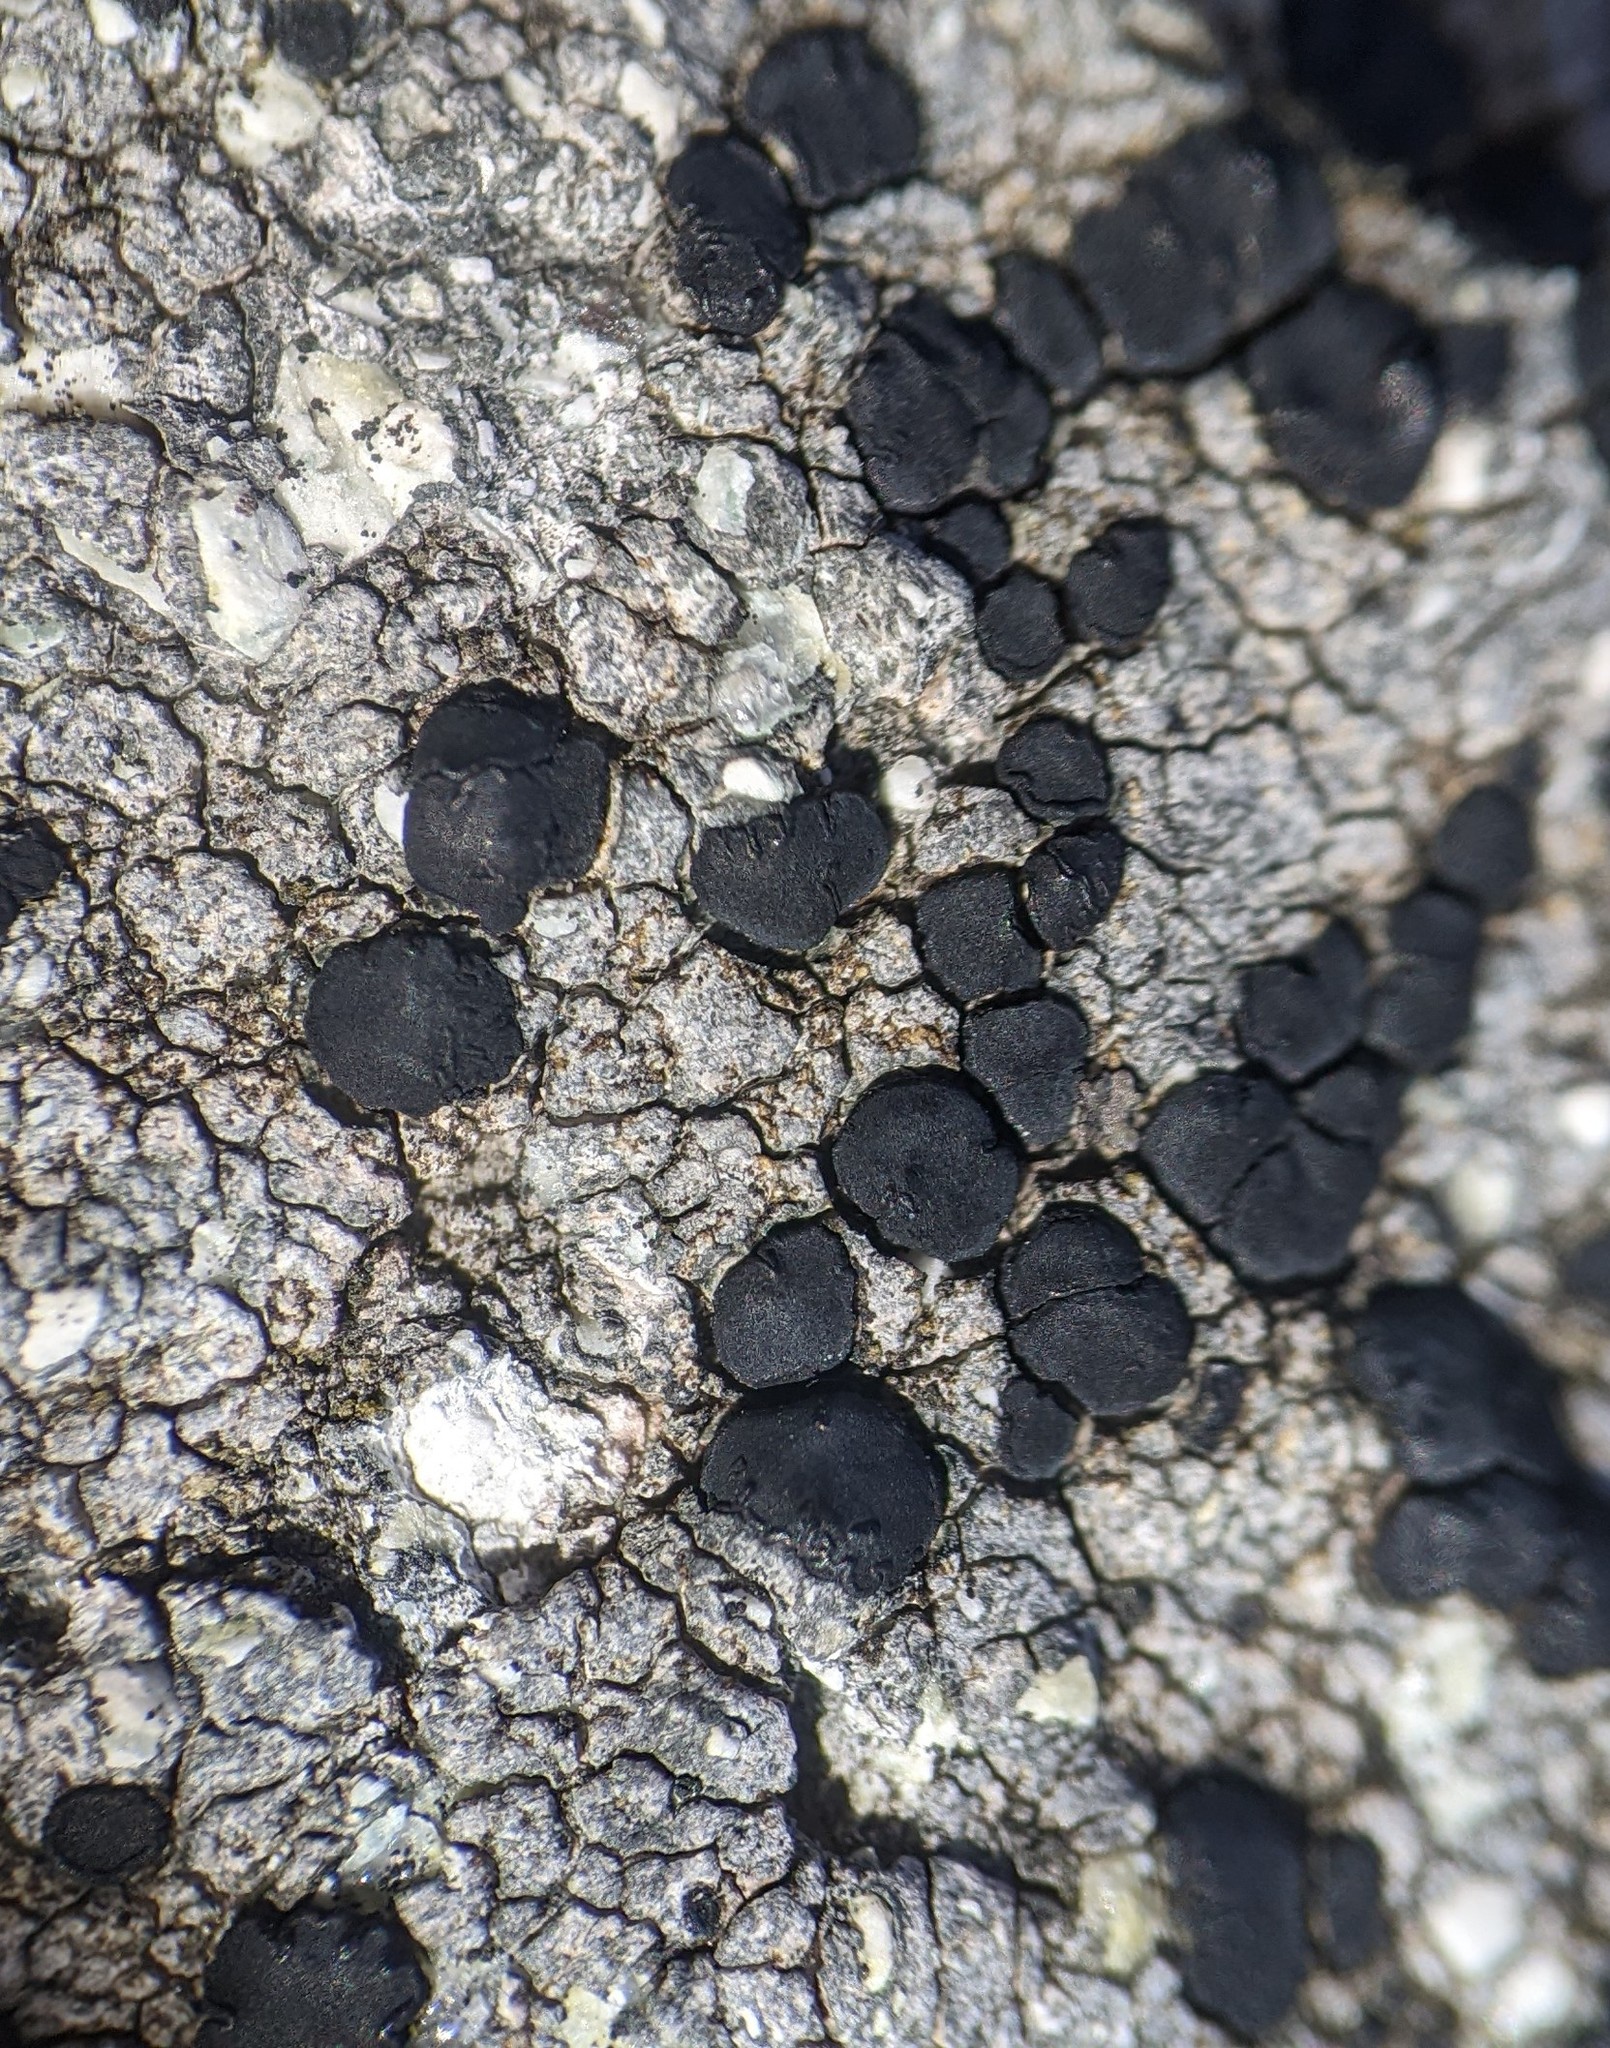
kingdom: Fungi
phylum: Ascomycota
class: Lecanoromycetes
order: Lecideales
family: Lecideaceae
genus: Porpidia
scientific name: Porpidia crustulata
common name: Concentric boulder lichen
